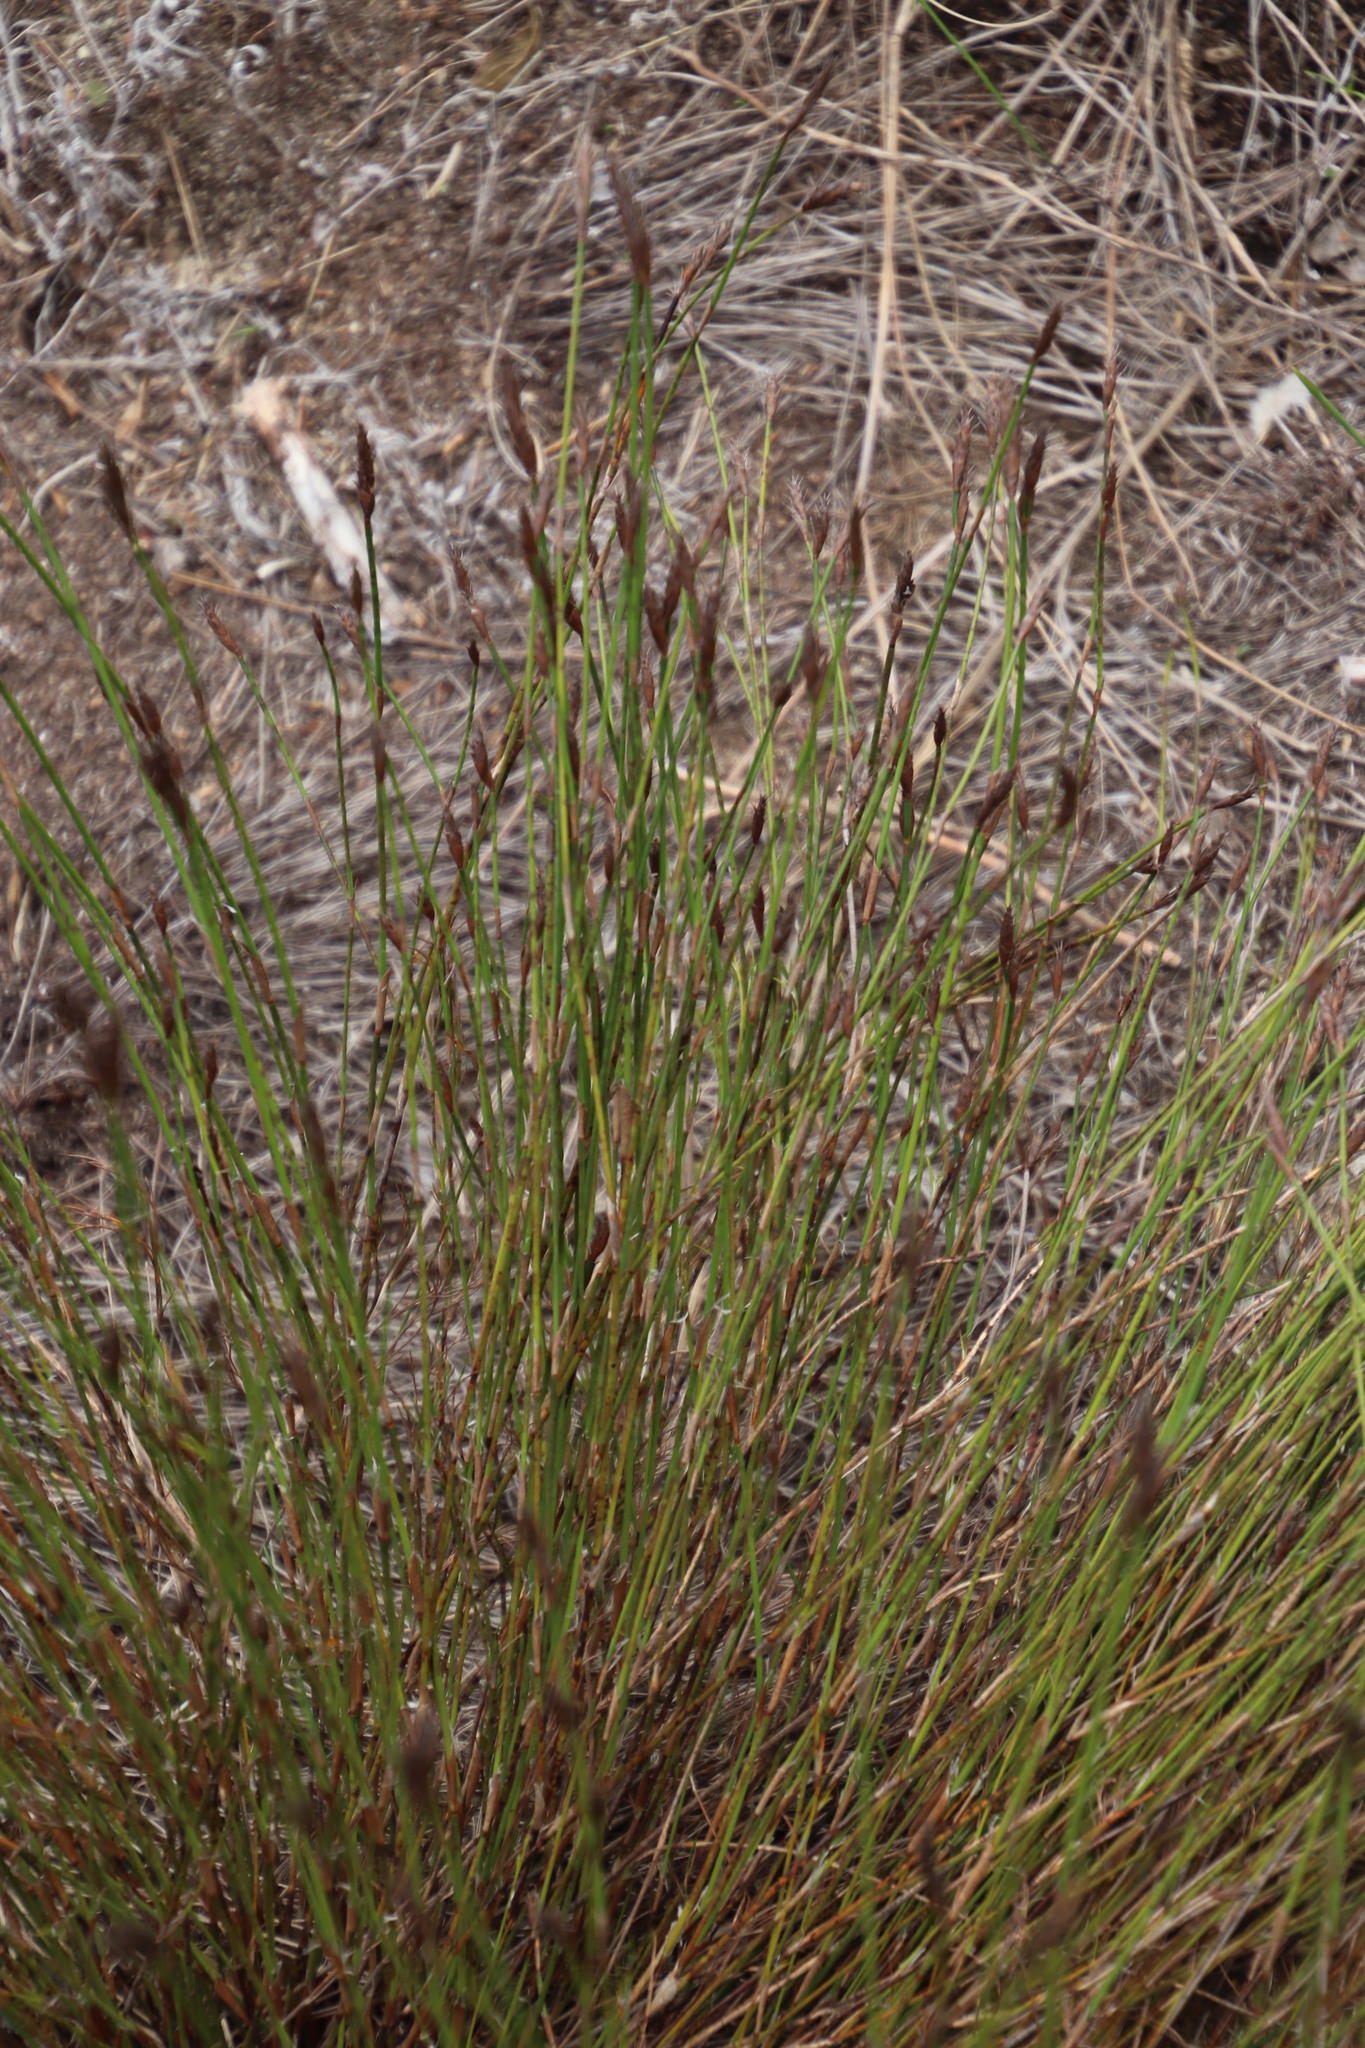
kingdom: Plantae
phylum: Tracheophyta
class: Liliopsida
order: Poales
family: Restionaceae
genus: Restio
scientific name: Restio capensis
